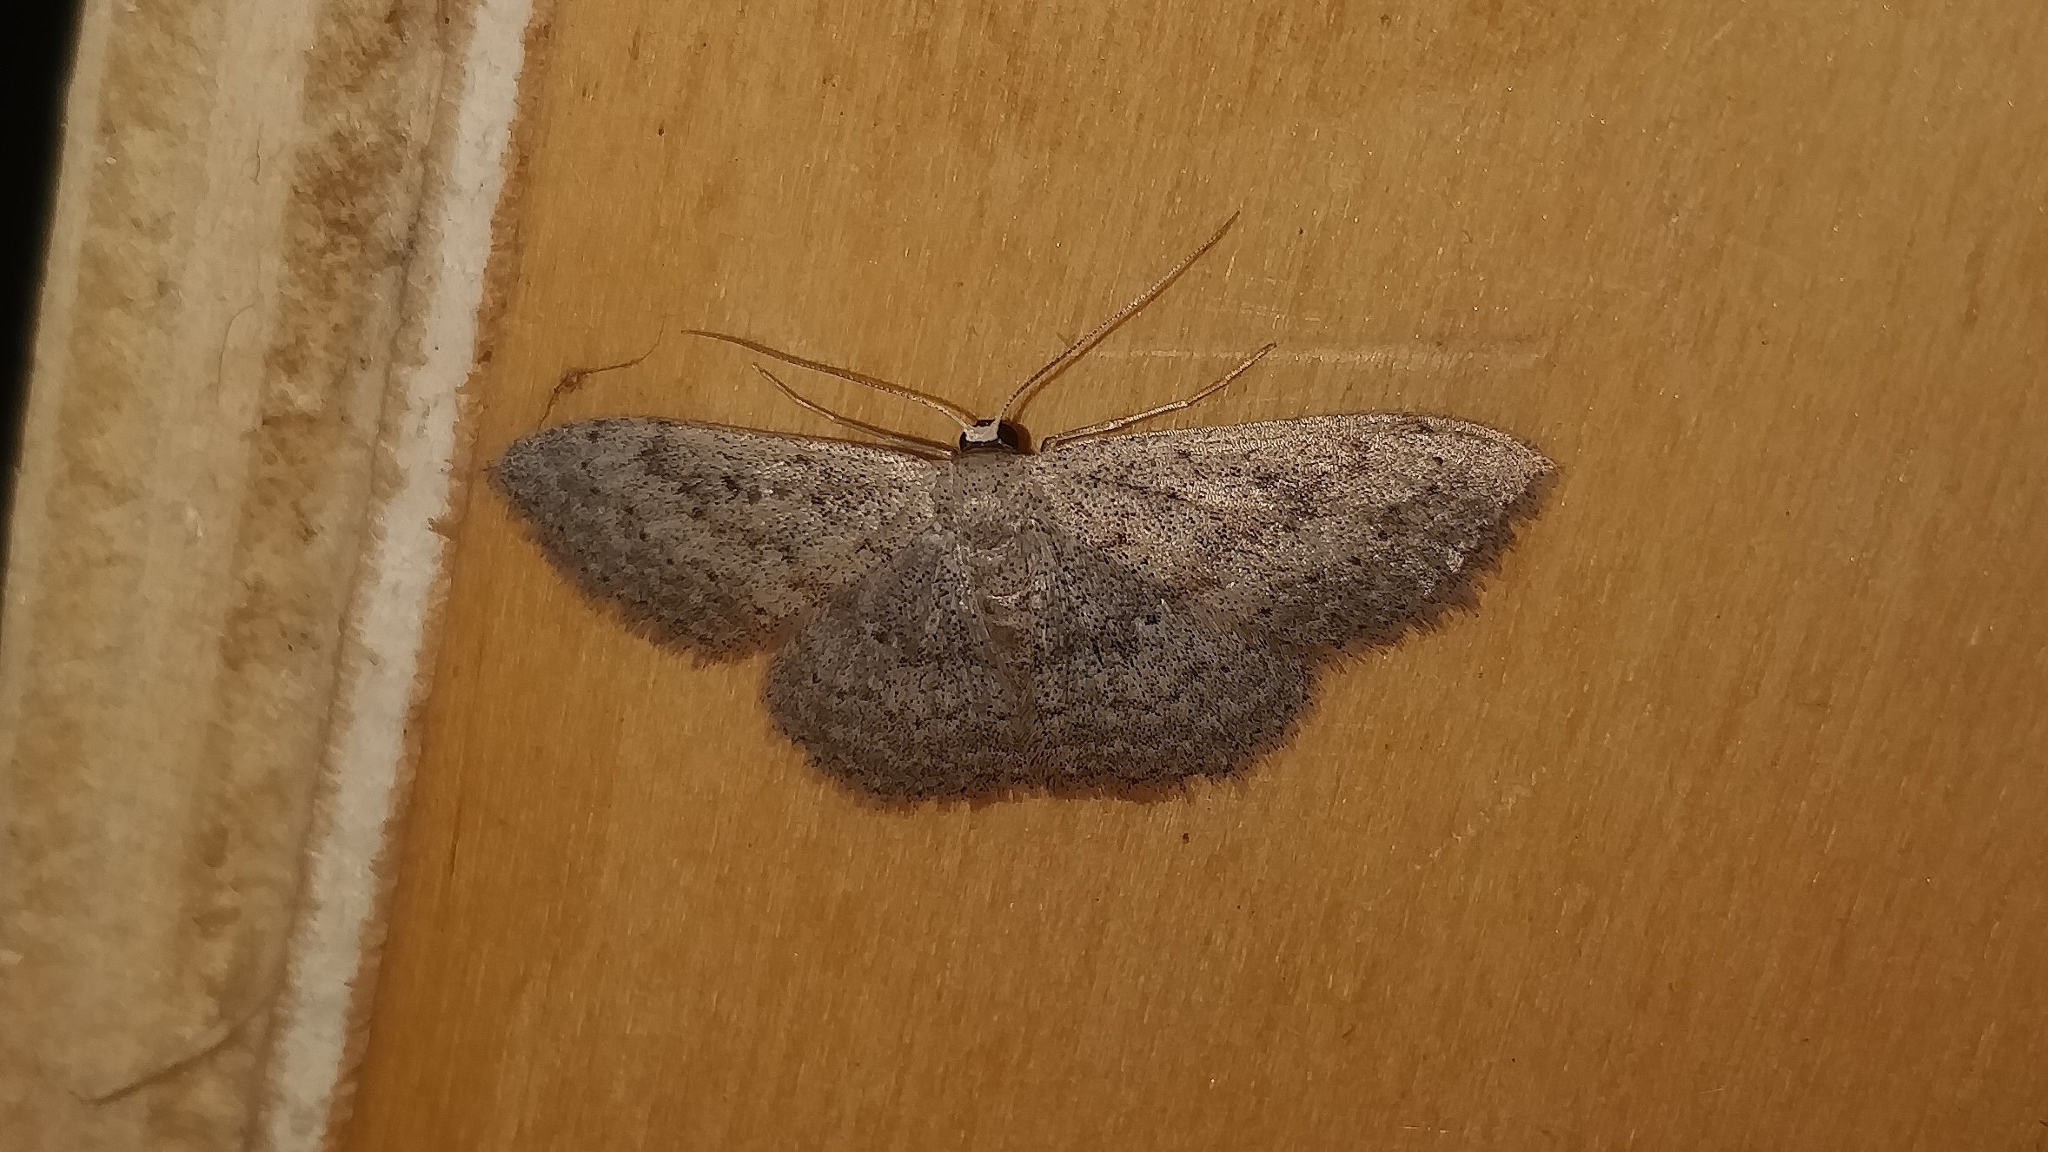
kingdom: Animalia
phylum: Arthropoda
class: Insecta
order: Lepidoptera
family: Geometridae
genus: Scopula
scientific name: Scopula guancharia
